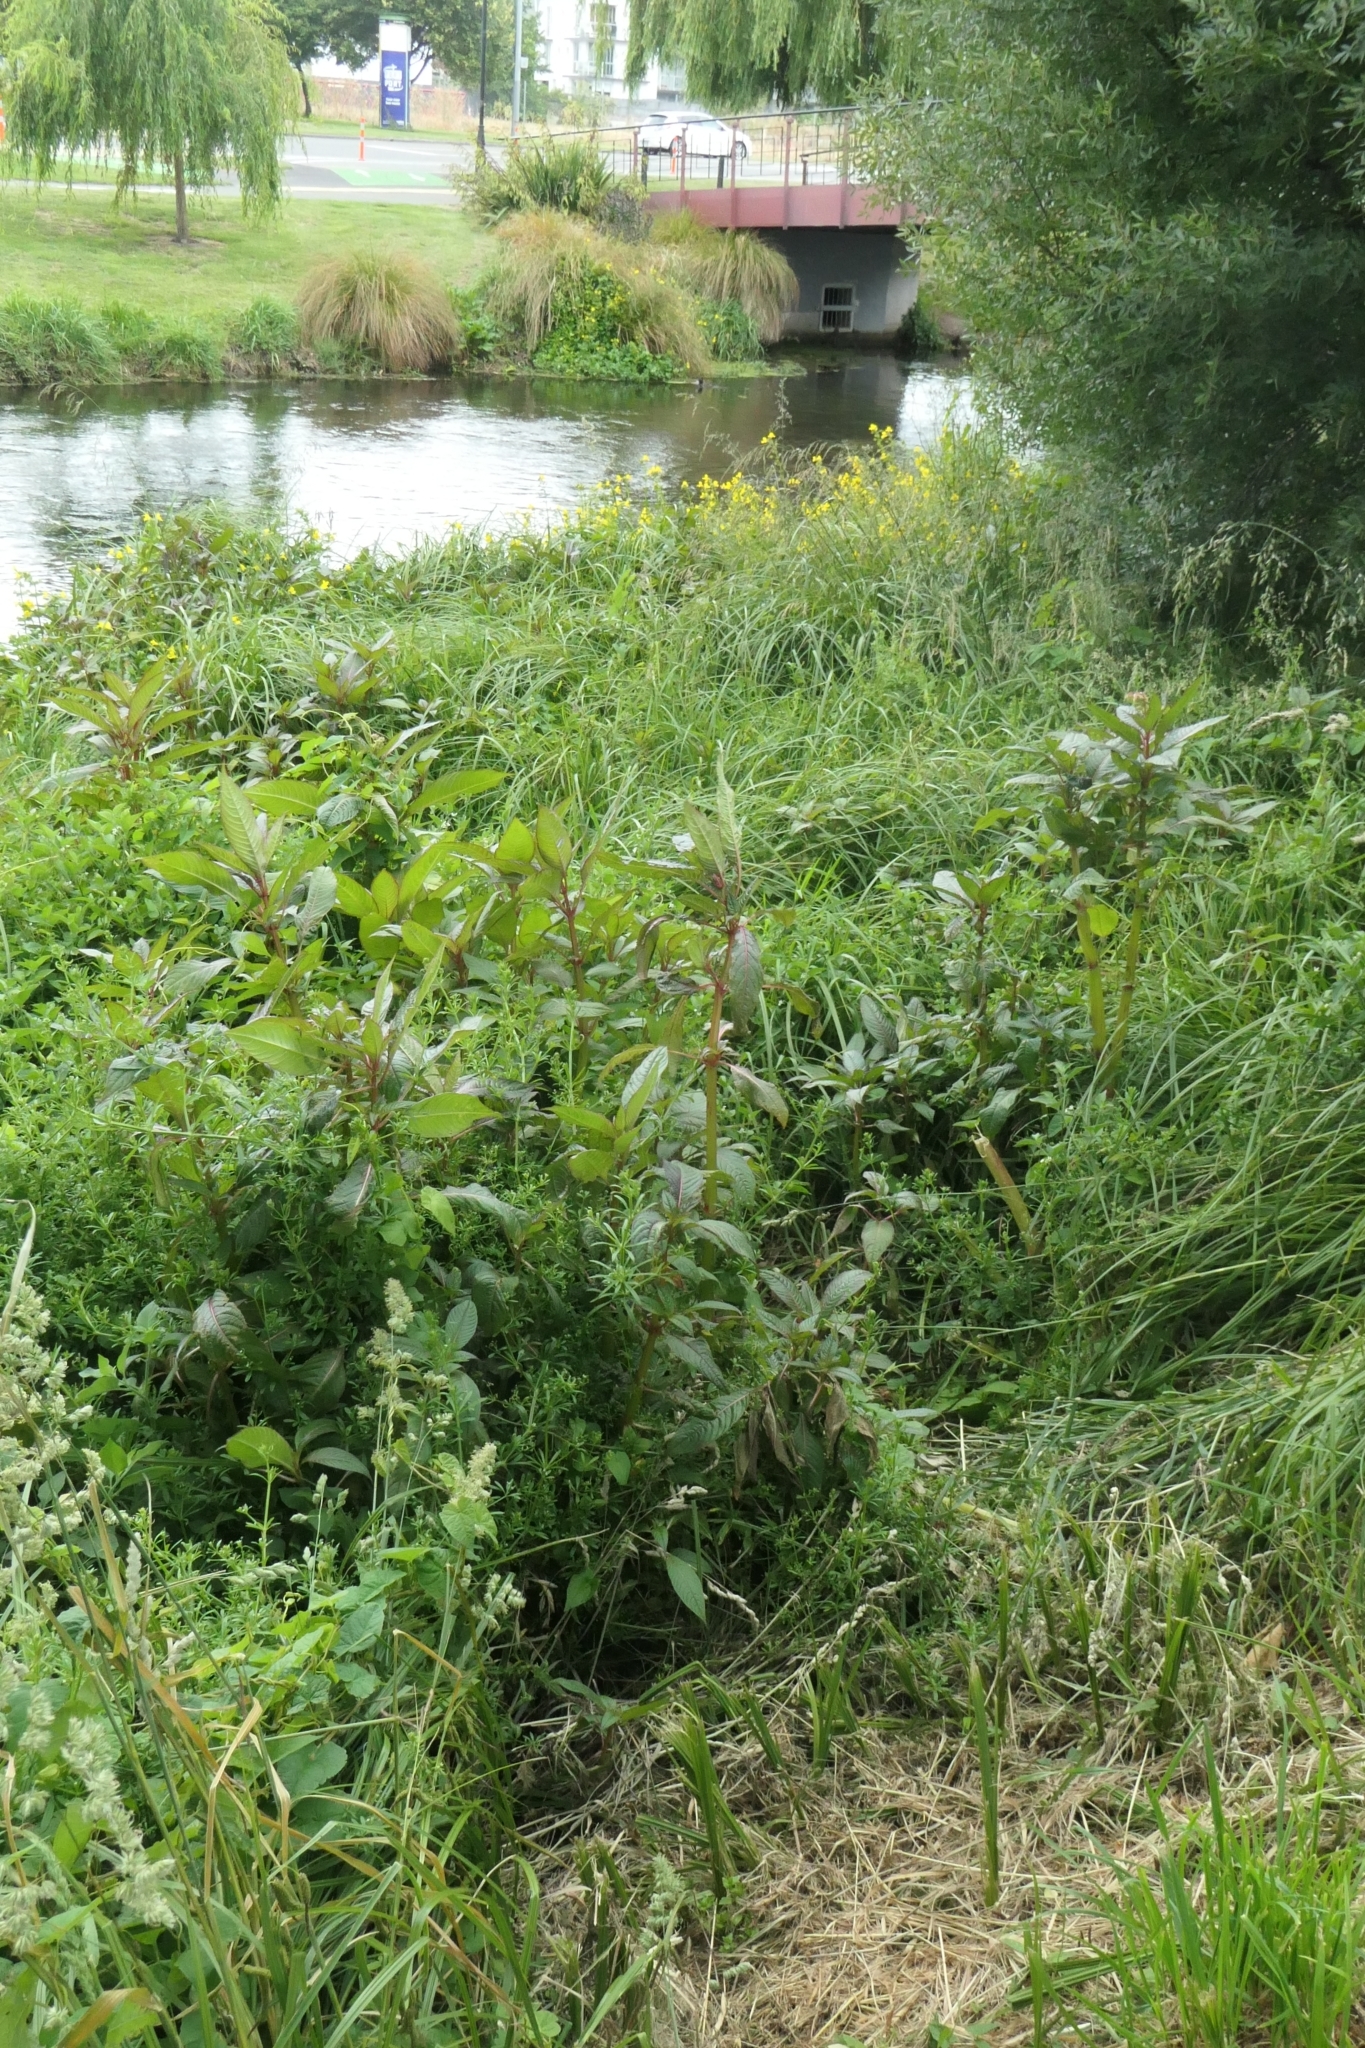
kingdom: Plantae
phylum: Tracheophyta
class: Magnoliopsida
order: Ericales
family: Balsaminaceae
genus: Impatiens
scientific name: Impatiens glandulifera
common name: Himalayan balsam
